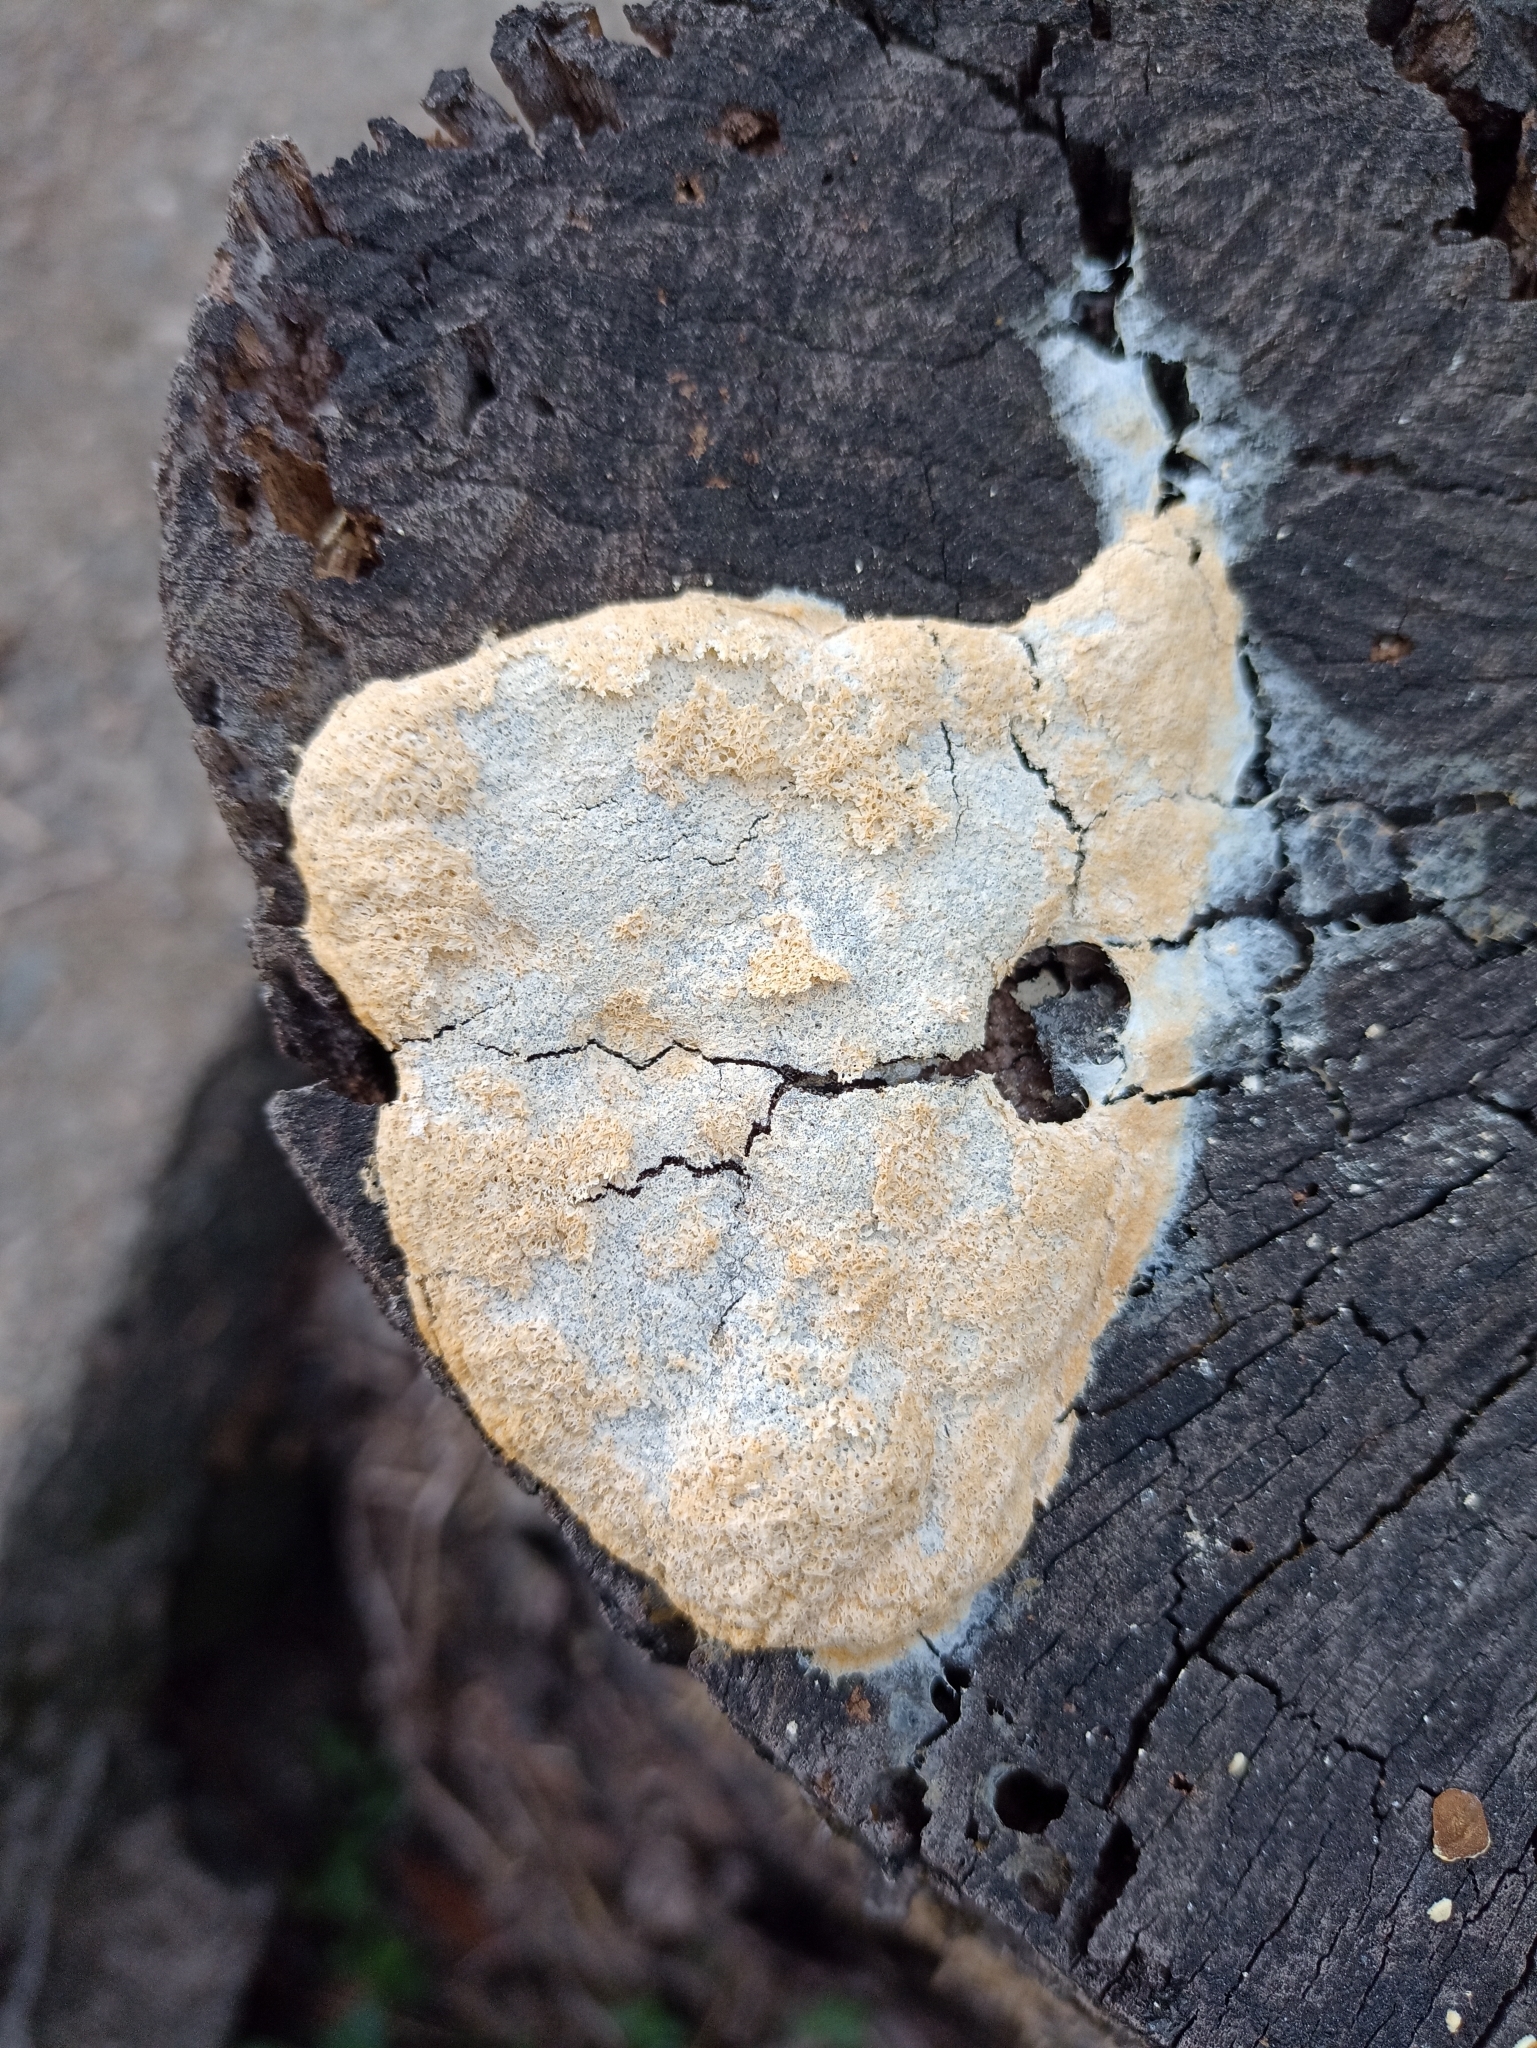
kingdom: Protozoa
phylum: Mycetozoa
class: Myxomycetes
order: Physarales
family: Physaraceae
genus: Fuligo
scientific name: Fuligo septica
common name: Dog vomit slime mold
